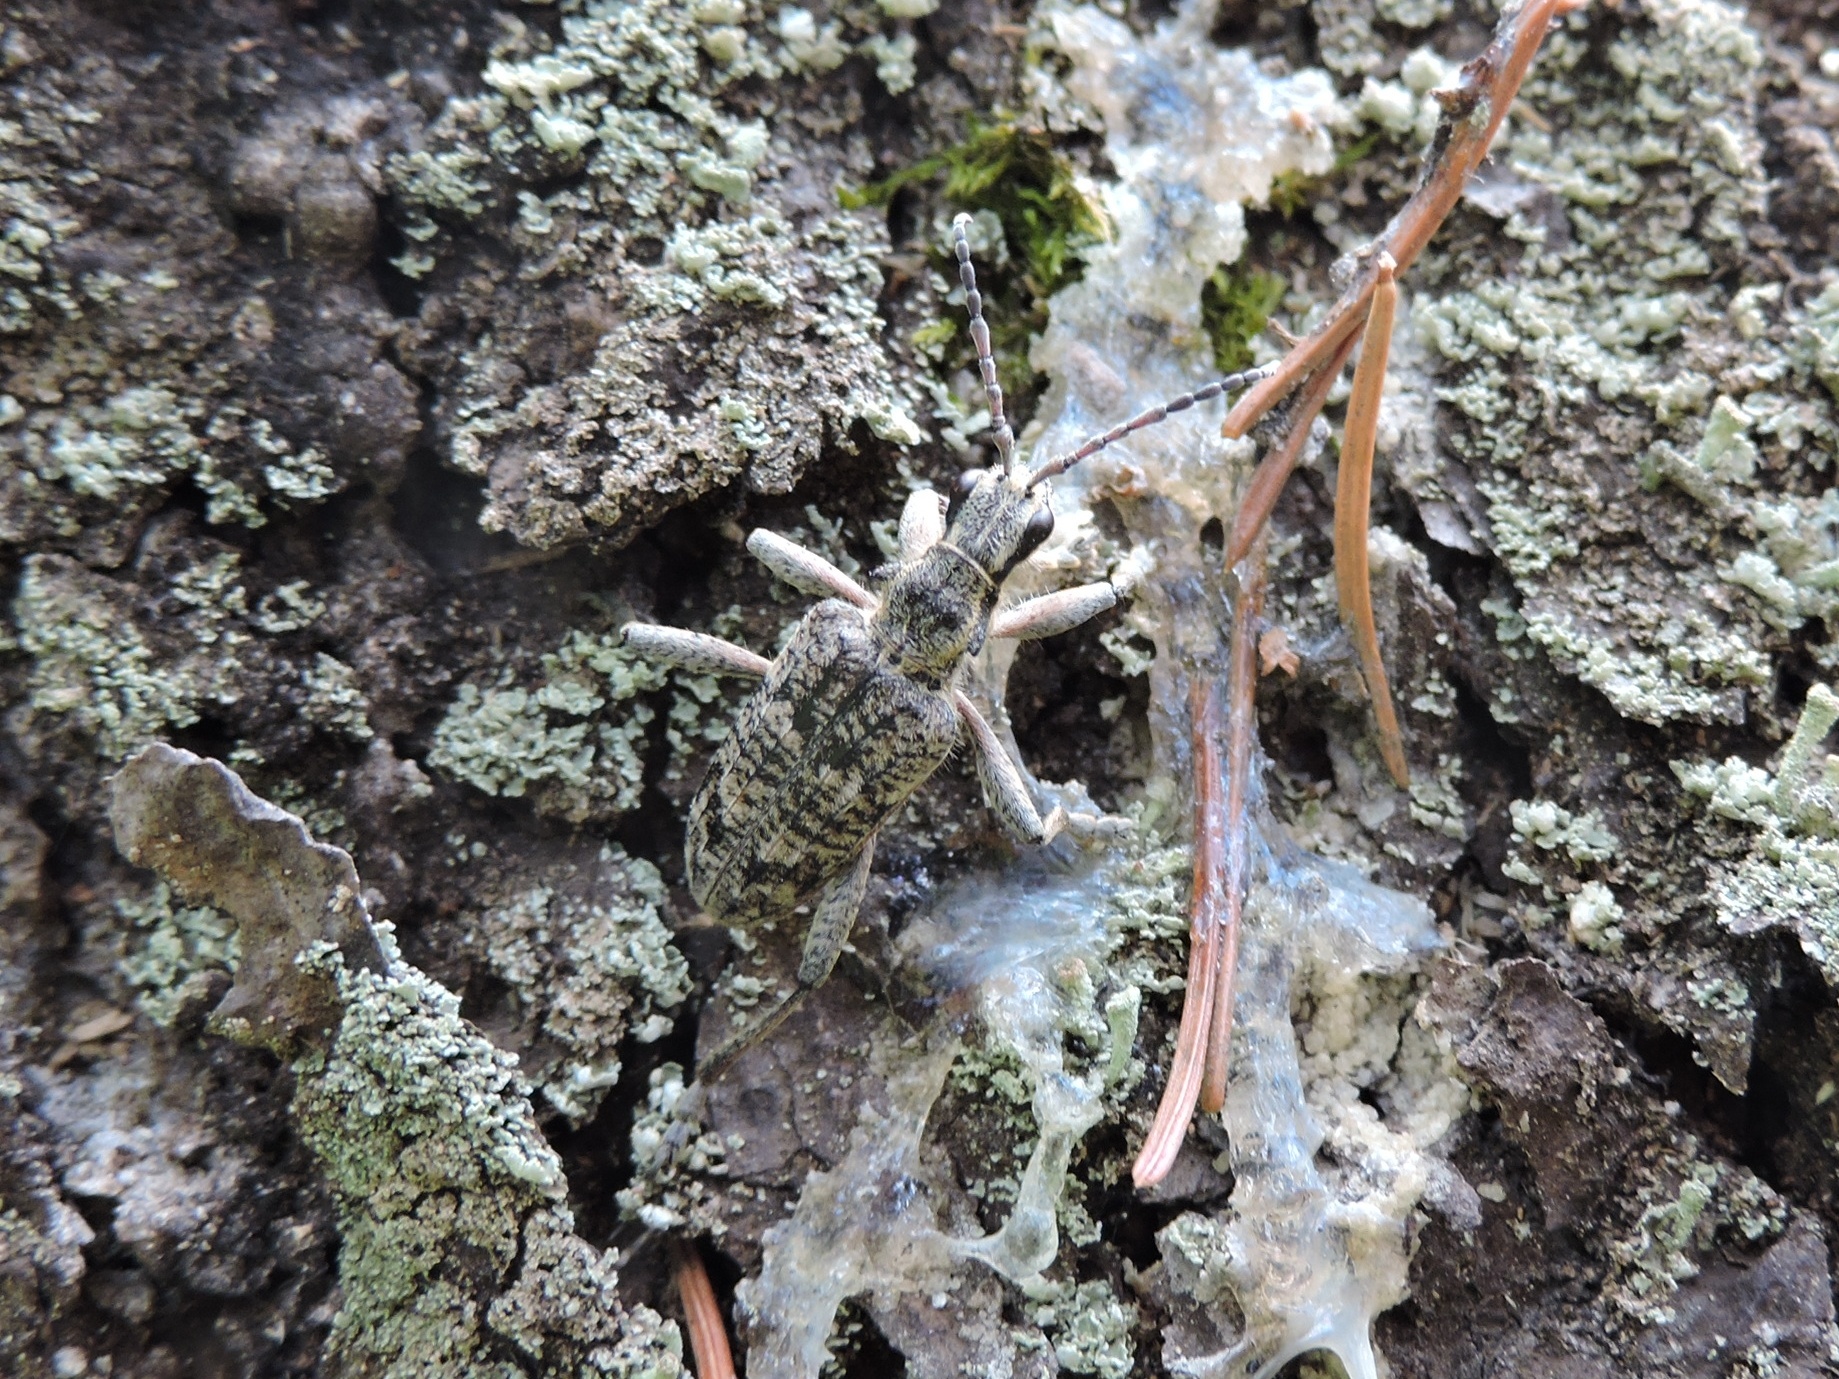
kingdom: Animalia
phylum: Arthropoda
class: Insecta
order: Coleoptera
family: Cerambycidae
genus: Rhagium
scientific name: Rhagium inquisitor
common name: Ribbed pine borer
